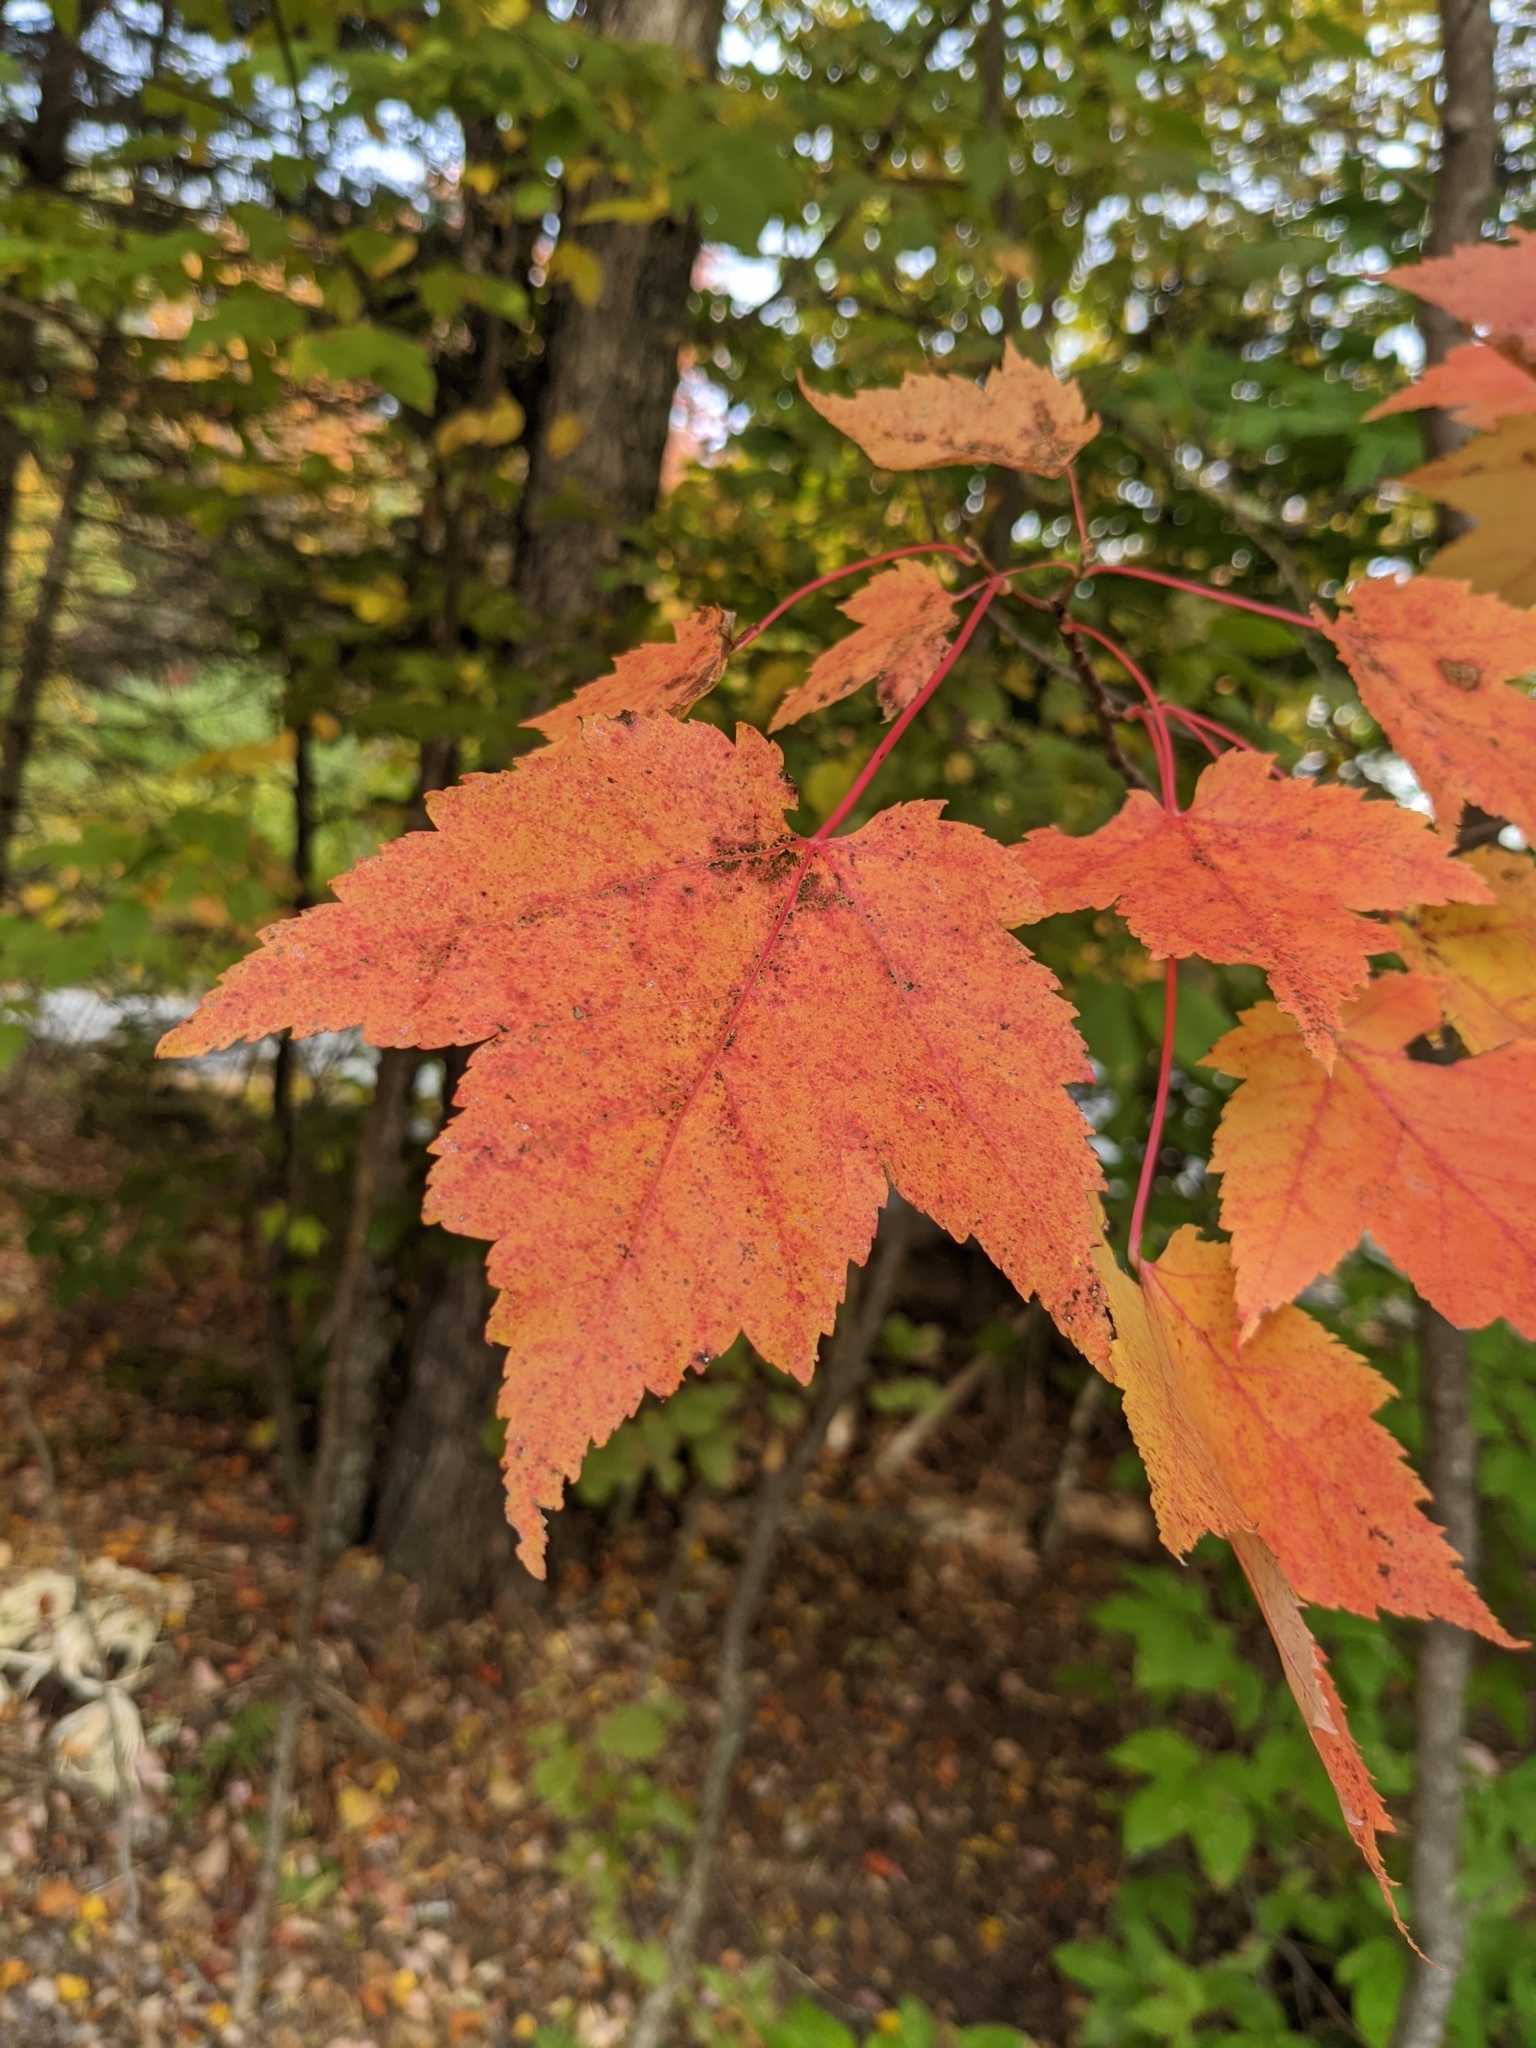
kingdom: Plantae
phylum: Tracheophyta
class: Magnoliopsida
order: Sapindales
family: Sapindaceae
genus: Acer
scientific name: Acer rubrum
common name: Red maple
